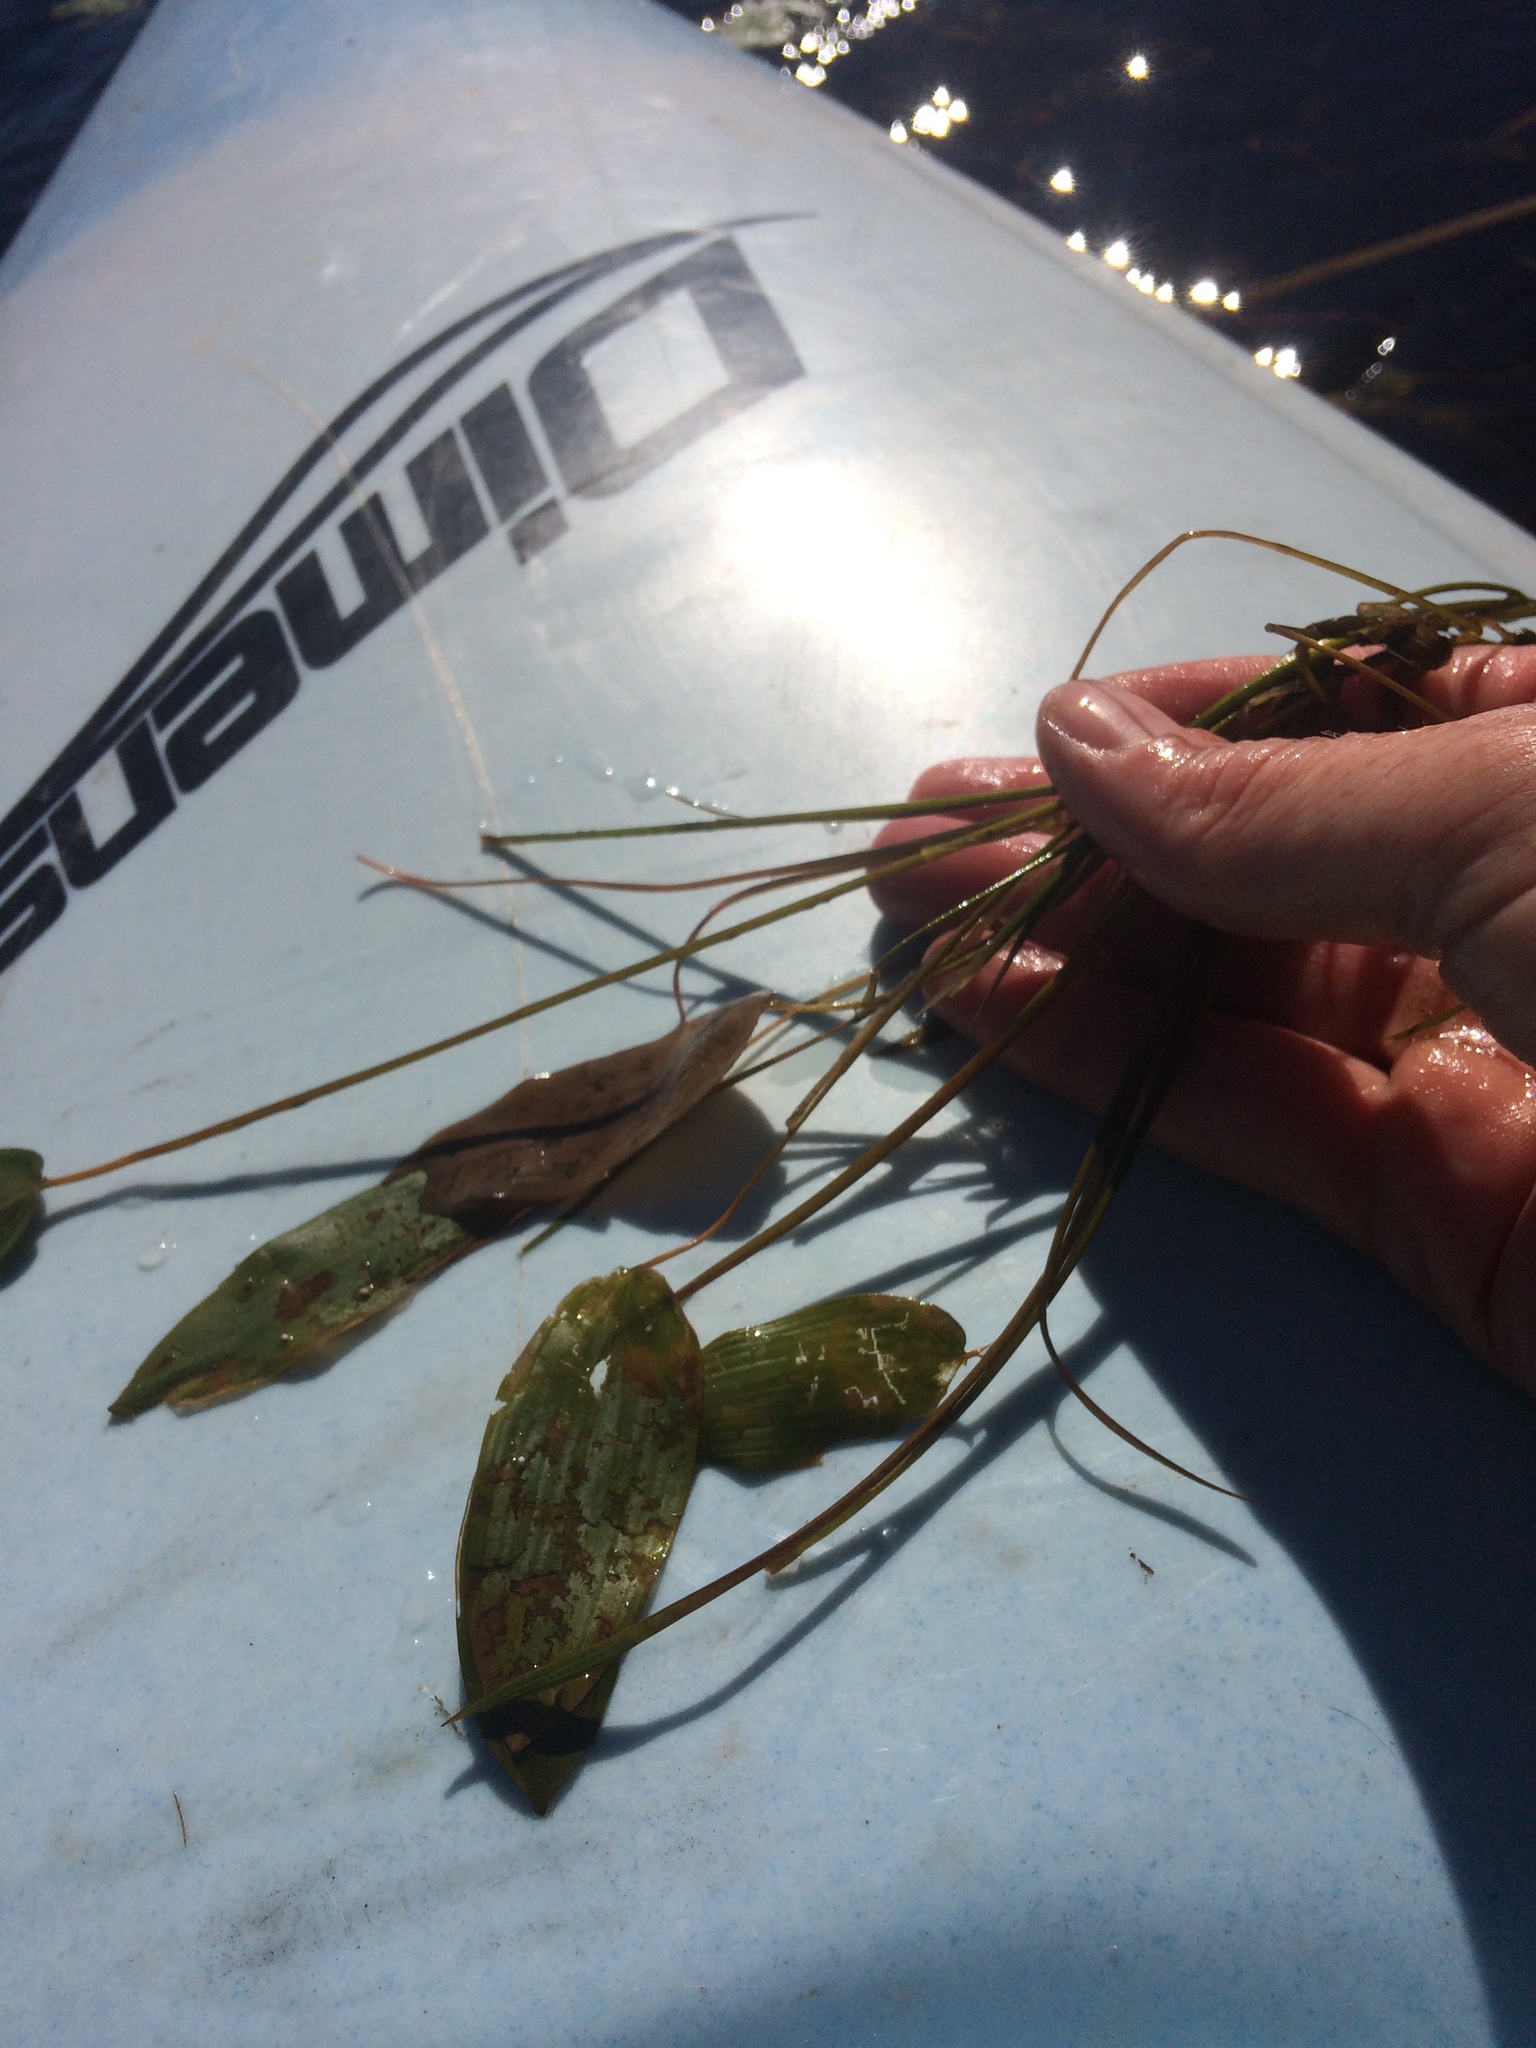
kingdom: Plantae
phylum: Tracheophyta
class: Liliopsida
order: Alismatales
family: Potamogetonaceae
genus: Potamogeton
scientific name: Potamogeton natans
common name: Broad-leaved pondweed
